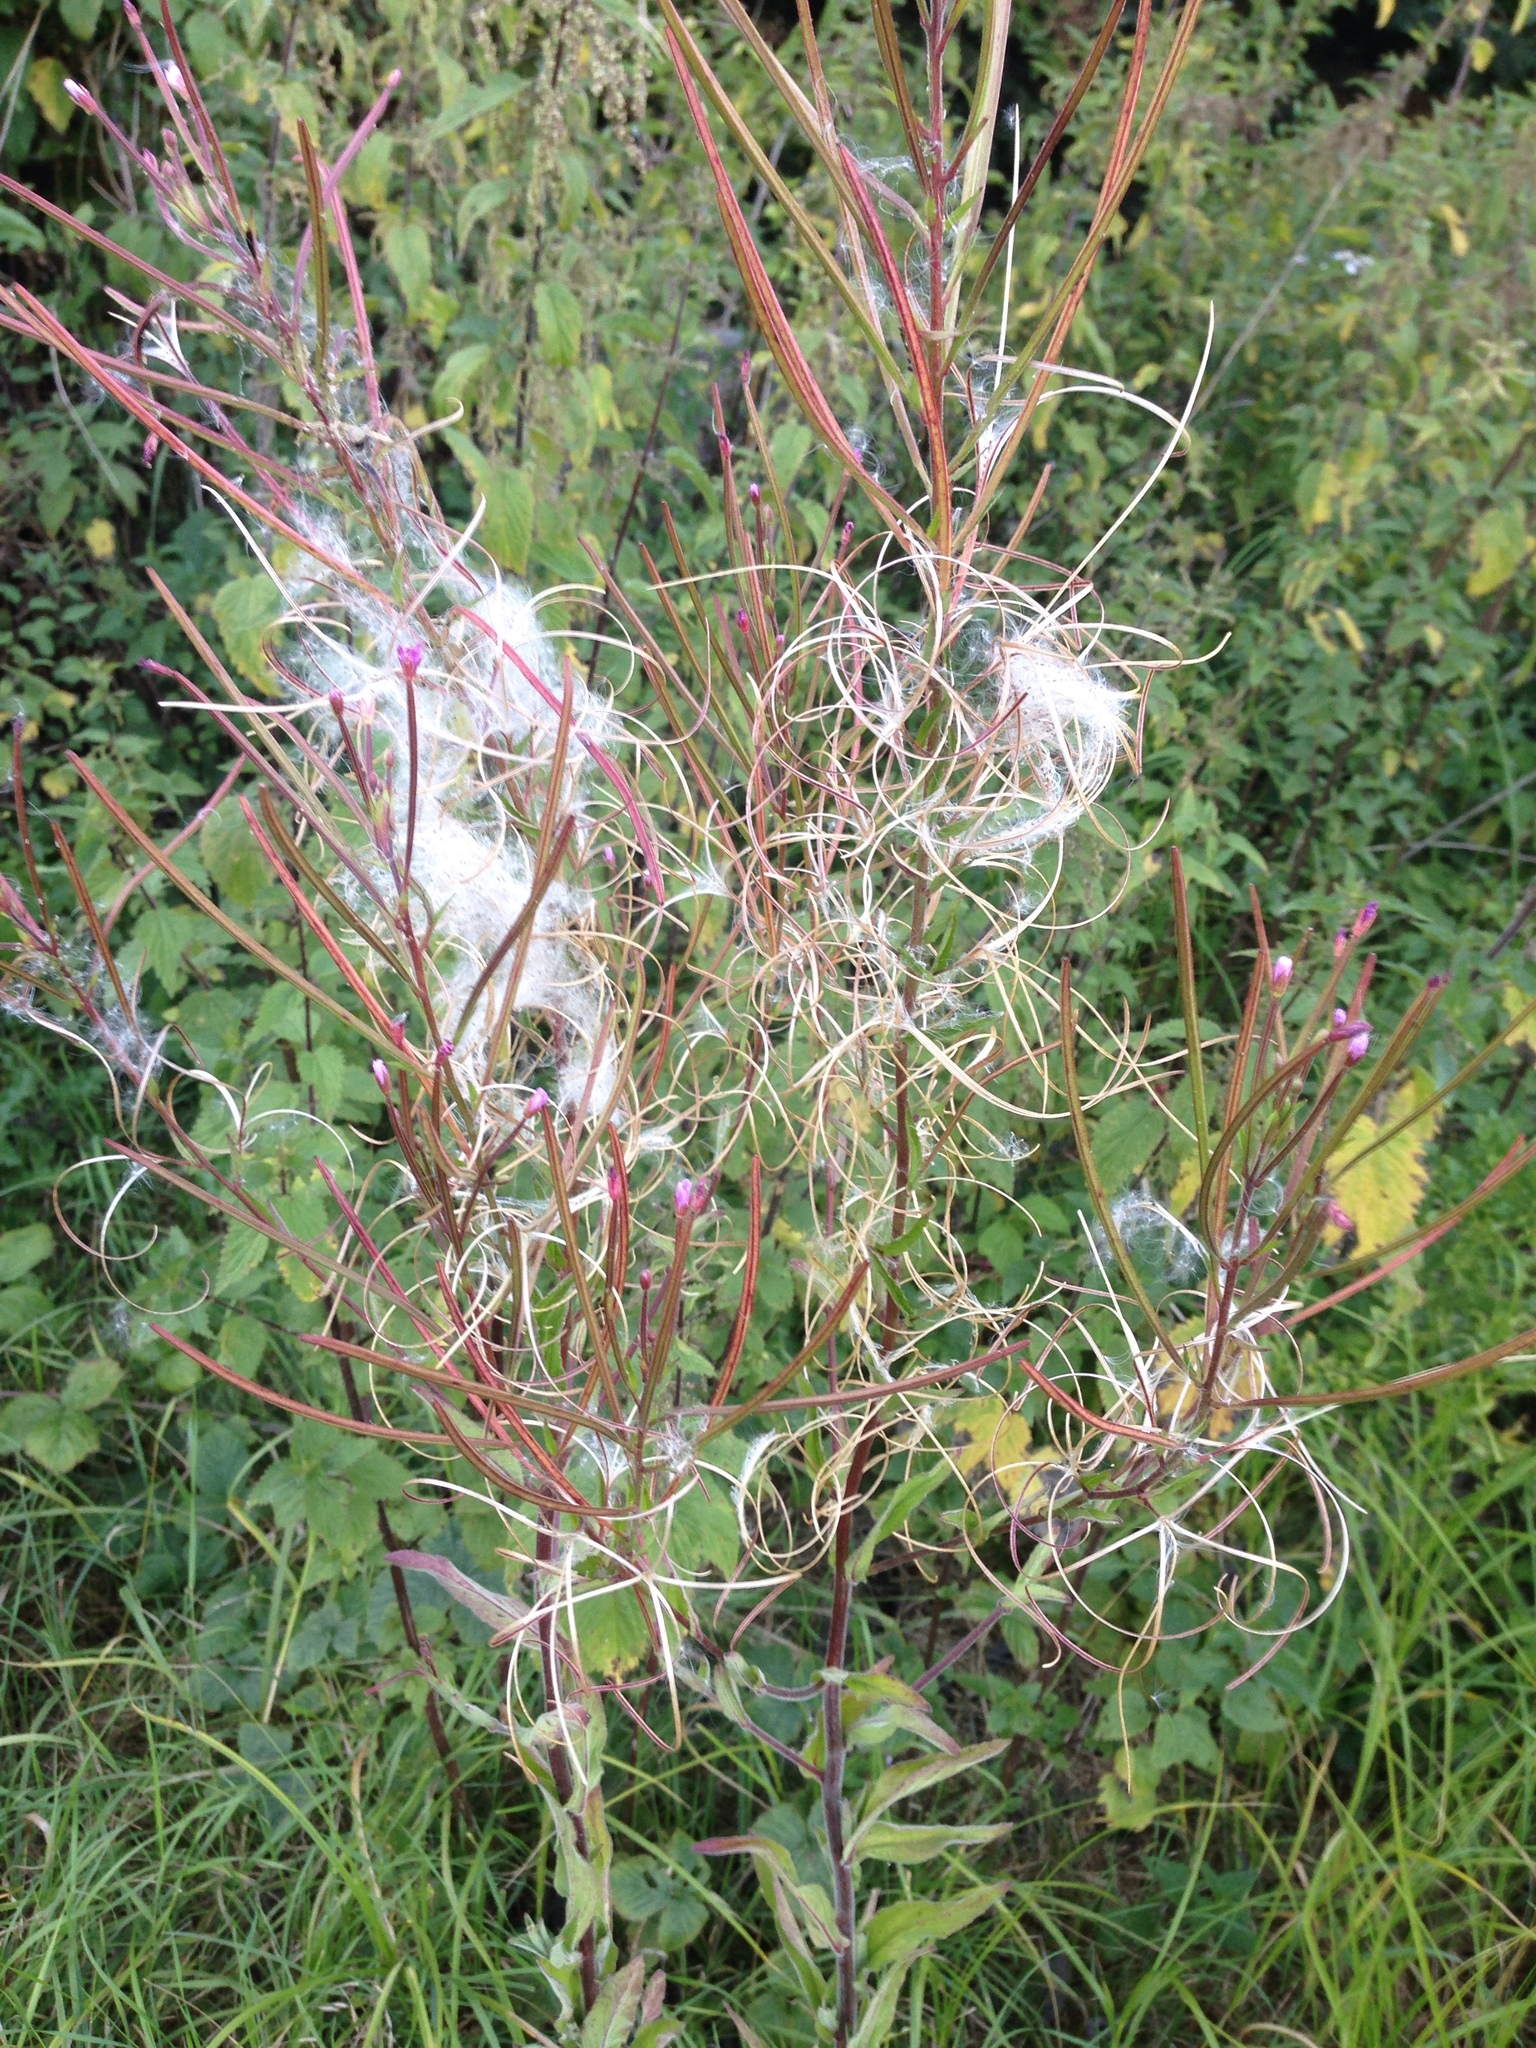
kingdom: Plantae
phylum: Tracheophyta
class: Magnoliopsida
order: Myrtales
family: Onagraceae
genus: Epilobium
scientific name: Epilobium parviflorum
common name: Hoary willowherb
